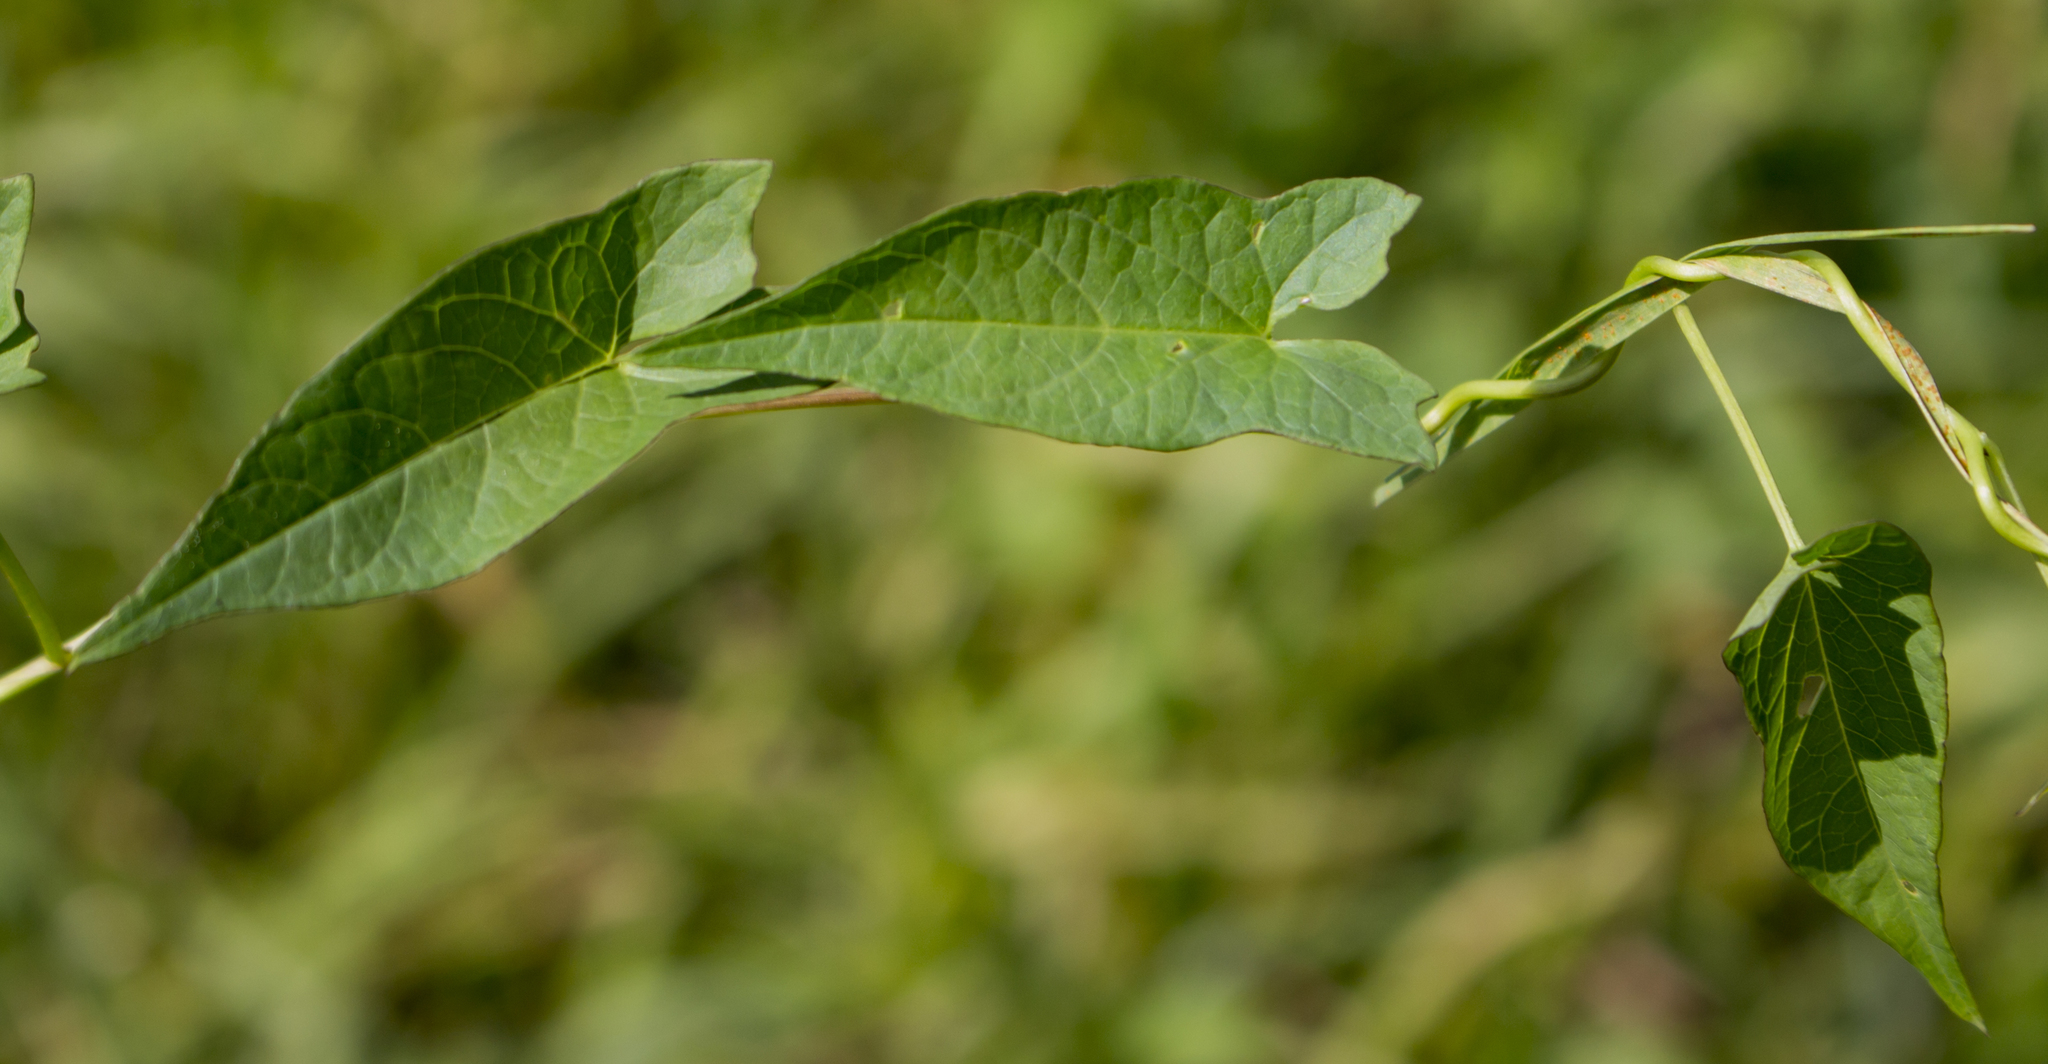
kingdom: Plantae
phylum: Tracheophyta
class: Magnoliopsida
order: Solanales
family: Convolvulaceae
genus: Calystegia
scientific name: Calystegia sepium
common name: Hedge bindweed
